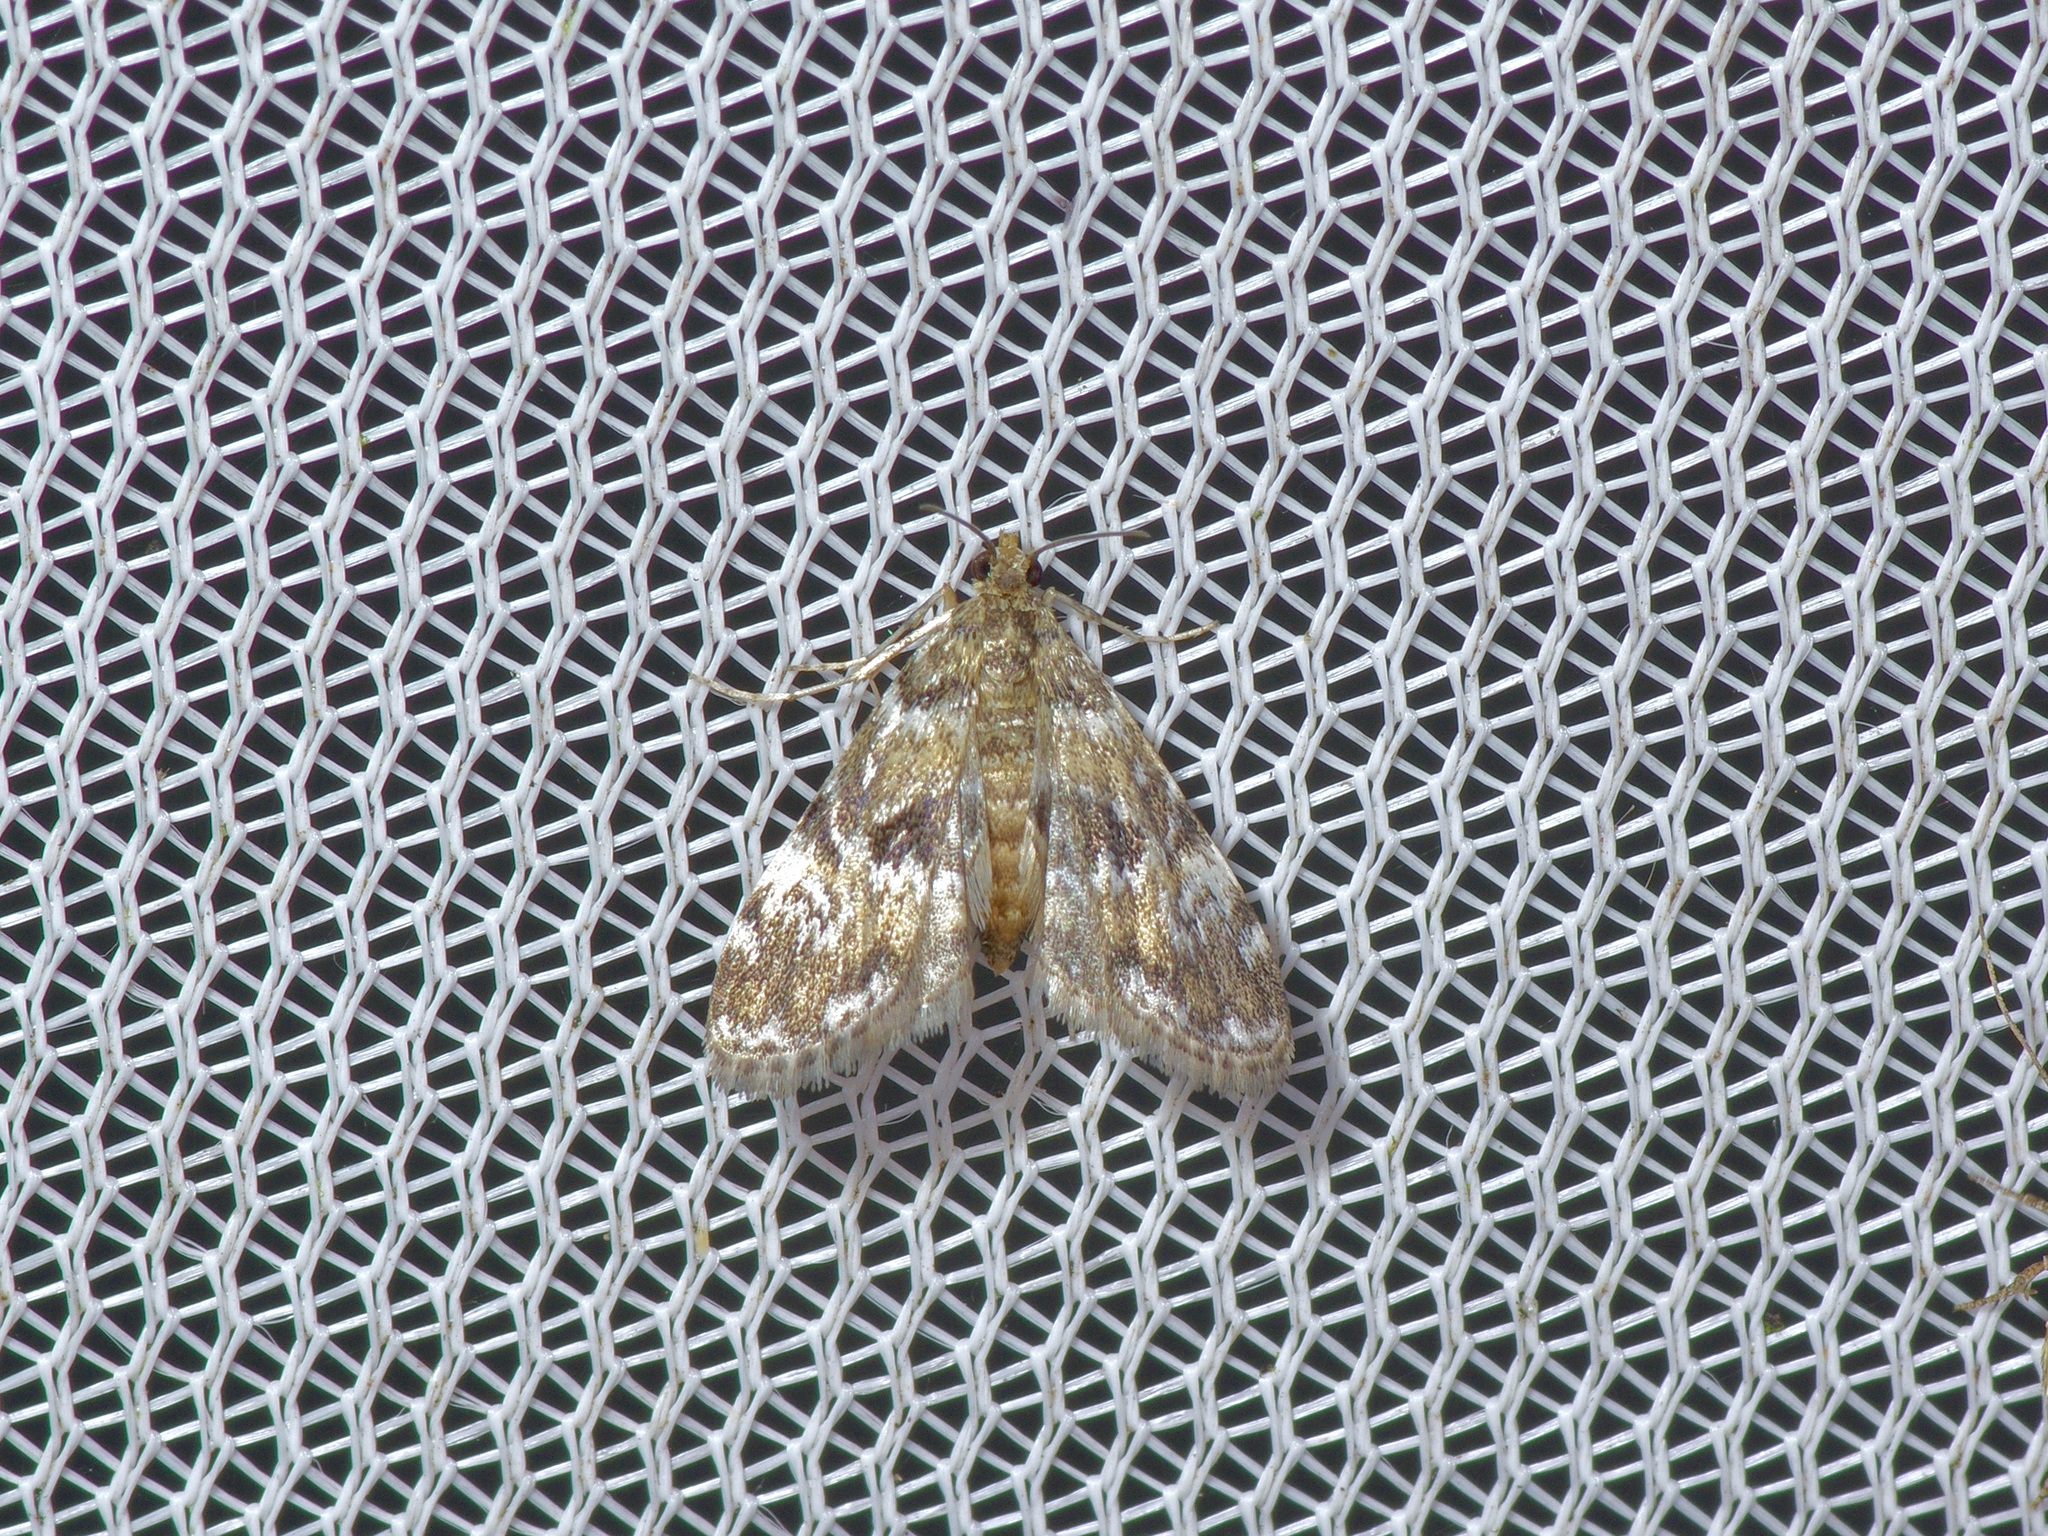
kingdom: Animalia
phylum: Arthropoda
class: Insecta
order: Lepidoptera
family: Crambidae
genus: Elophila
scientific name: Elophila obliteralis
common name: Waterlily leafcutter moth
